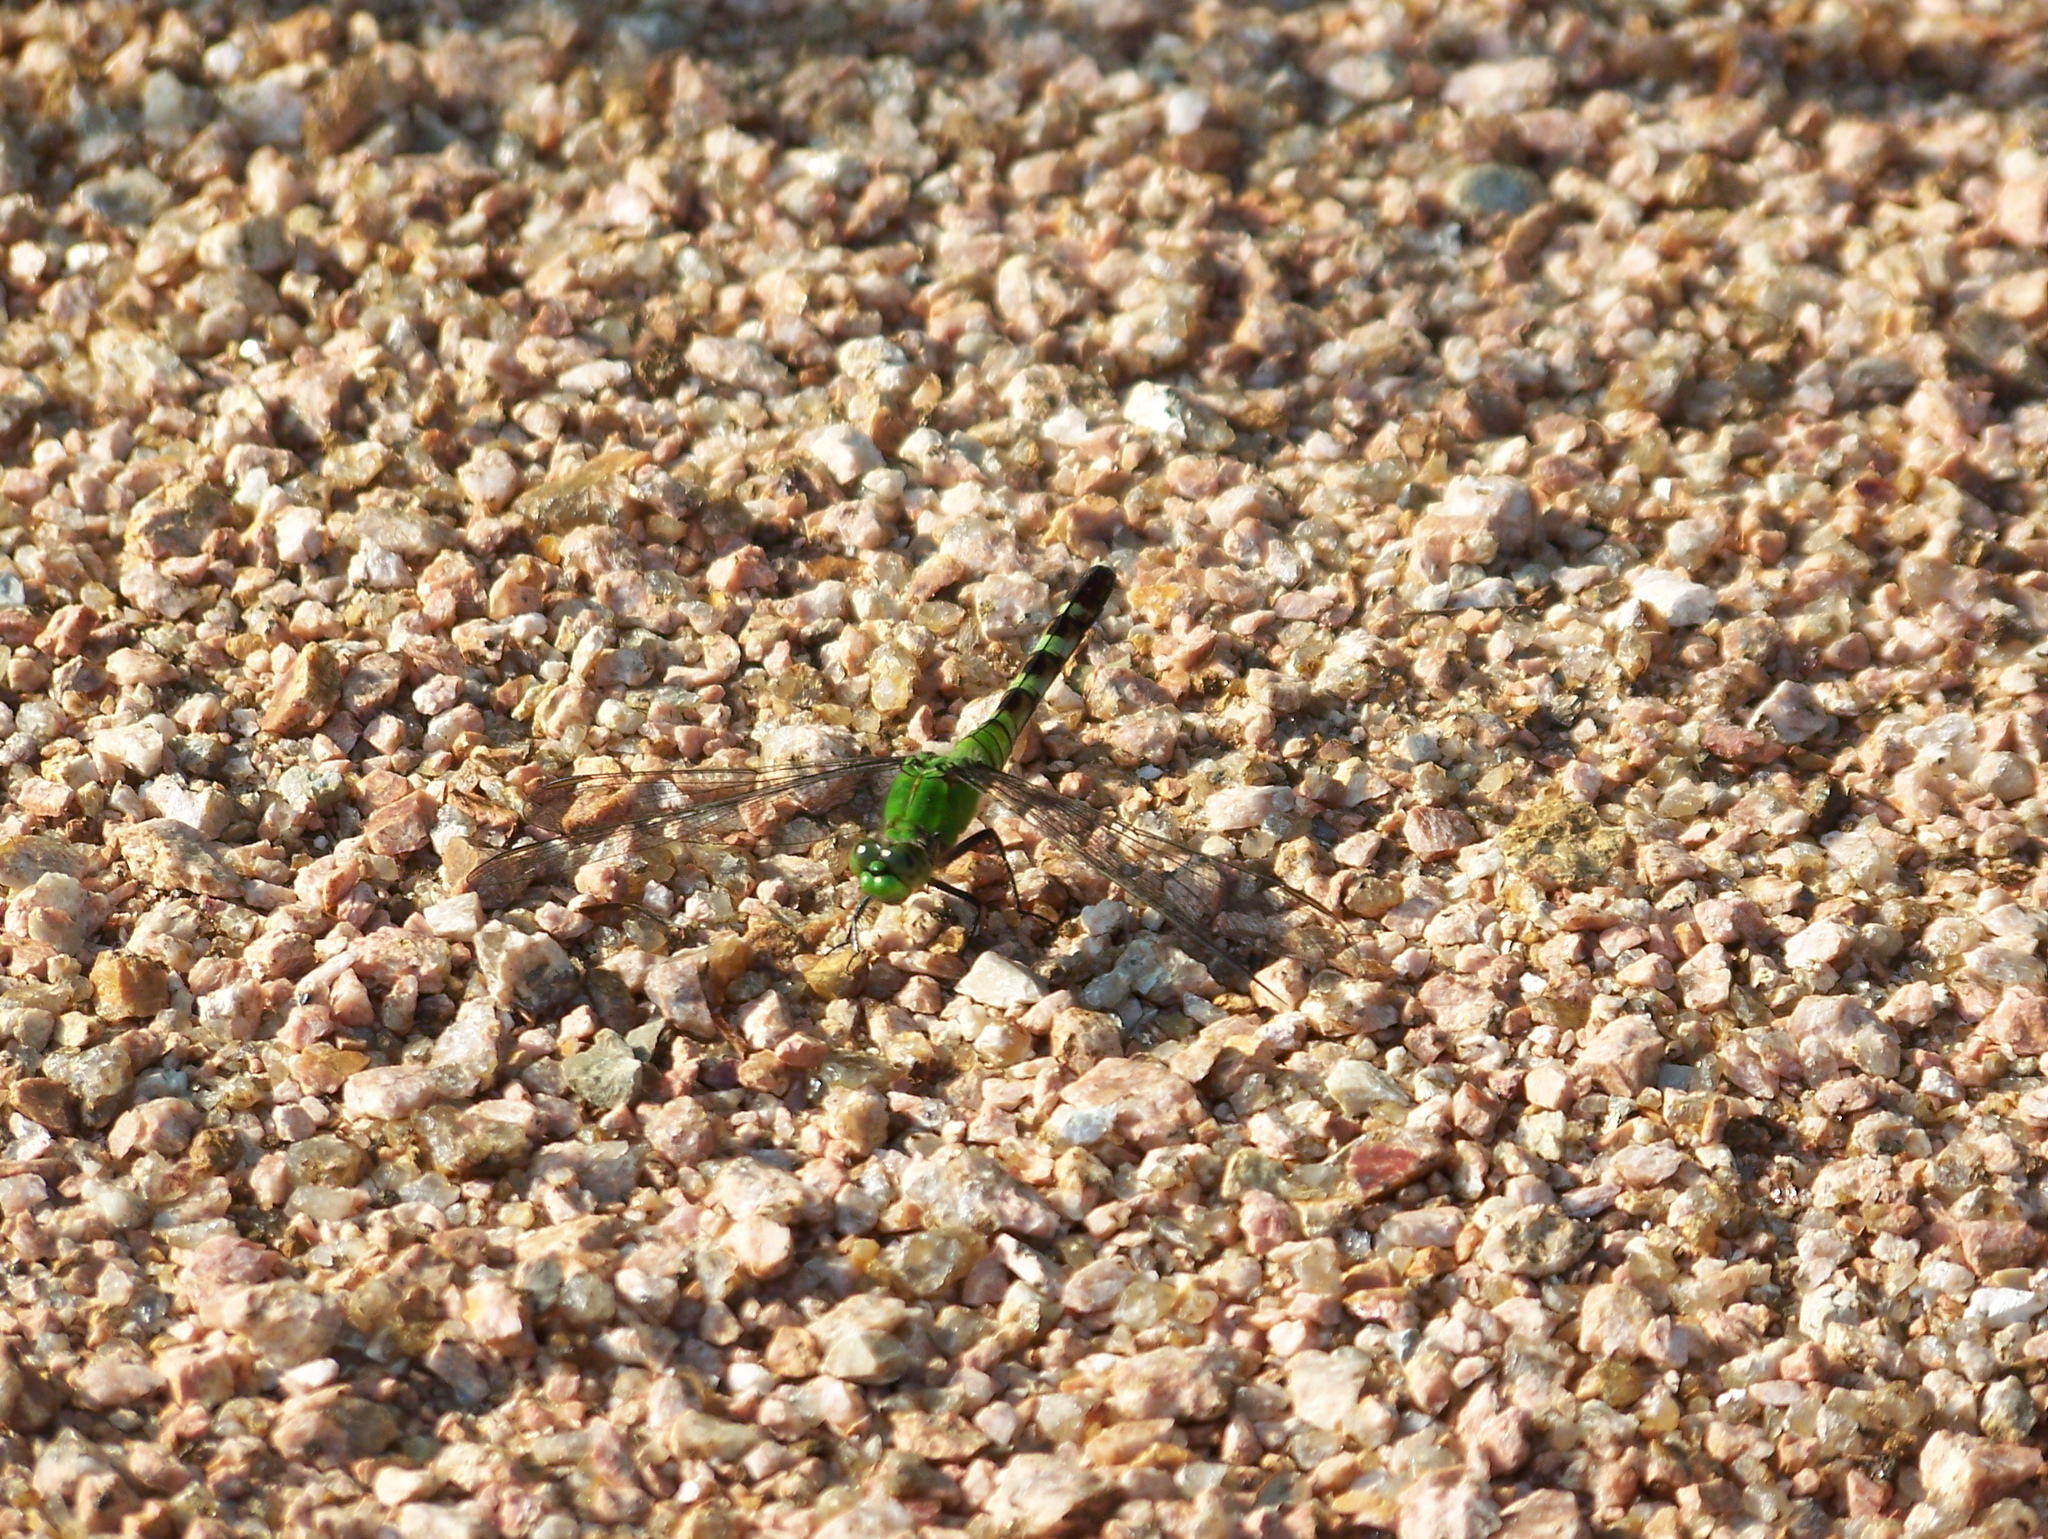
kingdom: Animalia
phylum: Arthropoda
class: Insecta
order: Odonata
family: Libellulidae
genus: Erythemis
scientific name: Erythemis simplicicollis
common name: Eastern pondhawk
